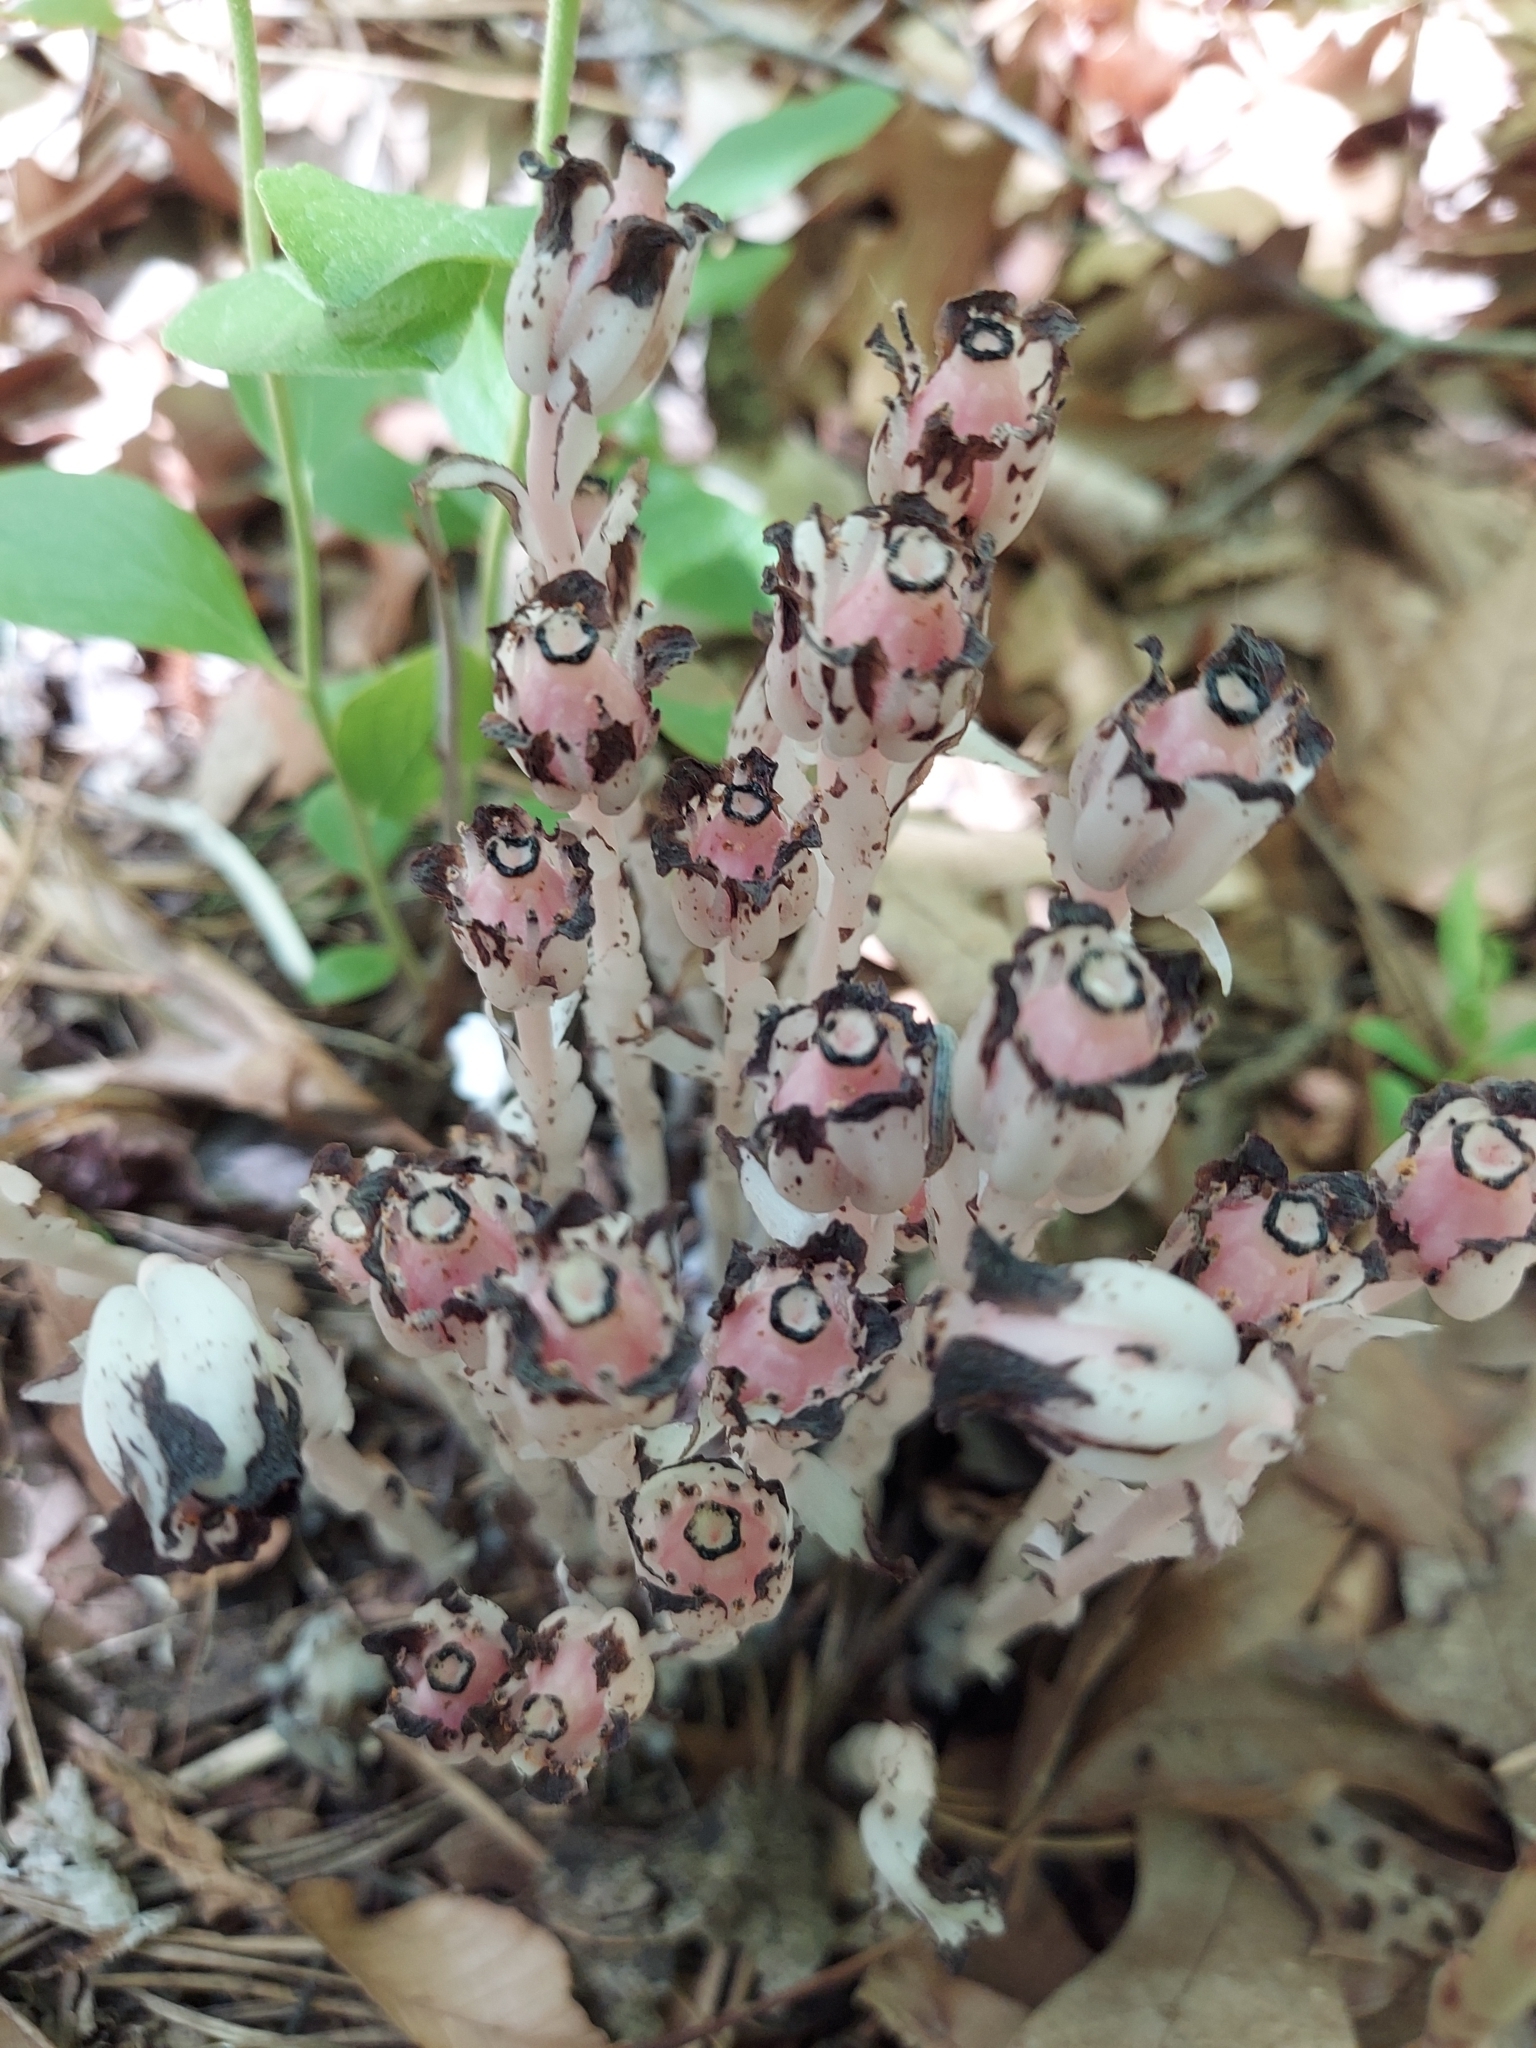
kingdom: Plantae
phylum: Tracheophyta
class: Magnoliopsida
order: Ericales
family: Ericaceae
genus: Monotropa
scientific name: Monotropa uniflora
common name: Convulsion root
